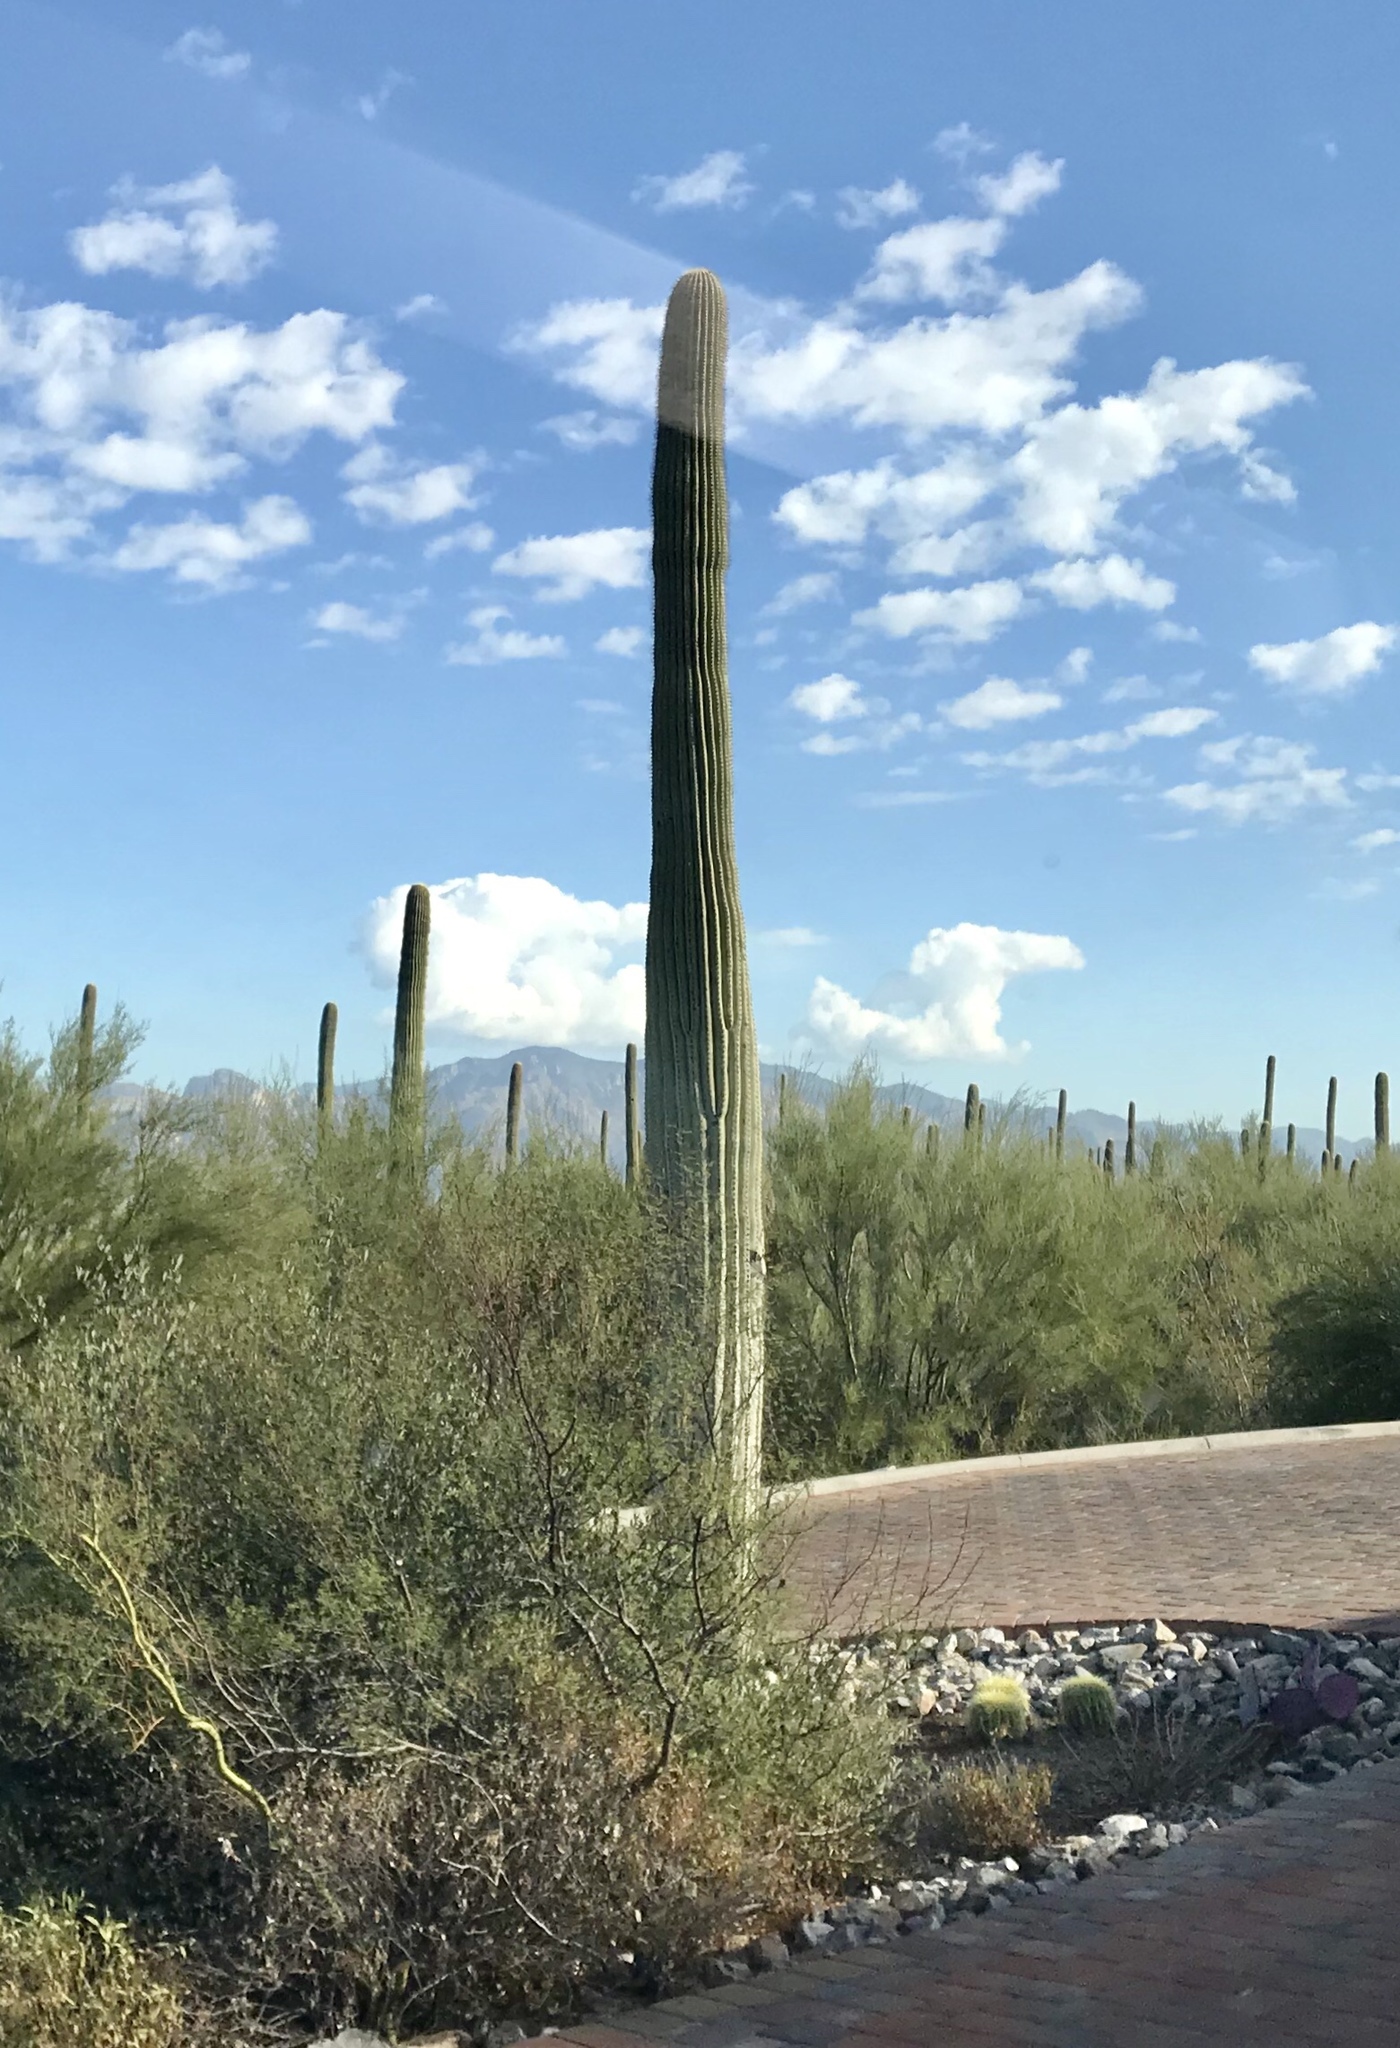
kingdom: Plantae
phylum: Tracheophyta
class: Magnoliopsida
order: Caryophyllales
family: Cactaceae
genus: Carnegiea
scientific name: Carnegiea gigantea
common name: Saguaro
